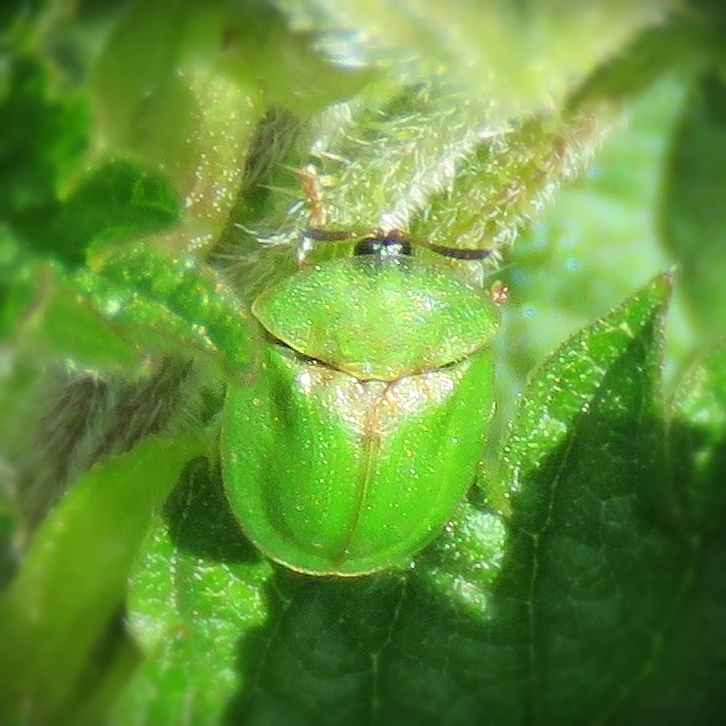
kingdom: Animalia
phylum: Arthropoda
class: Insecta
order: Coleoptera
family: Chrysomelidae
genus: Cassida
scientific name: Cassida rubiginosa
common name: Thistle tortoise beetle
